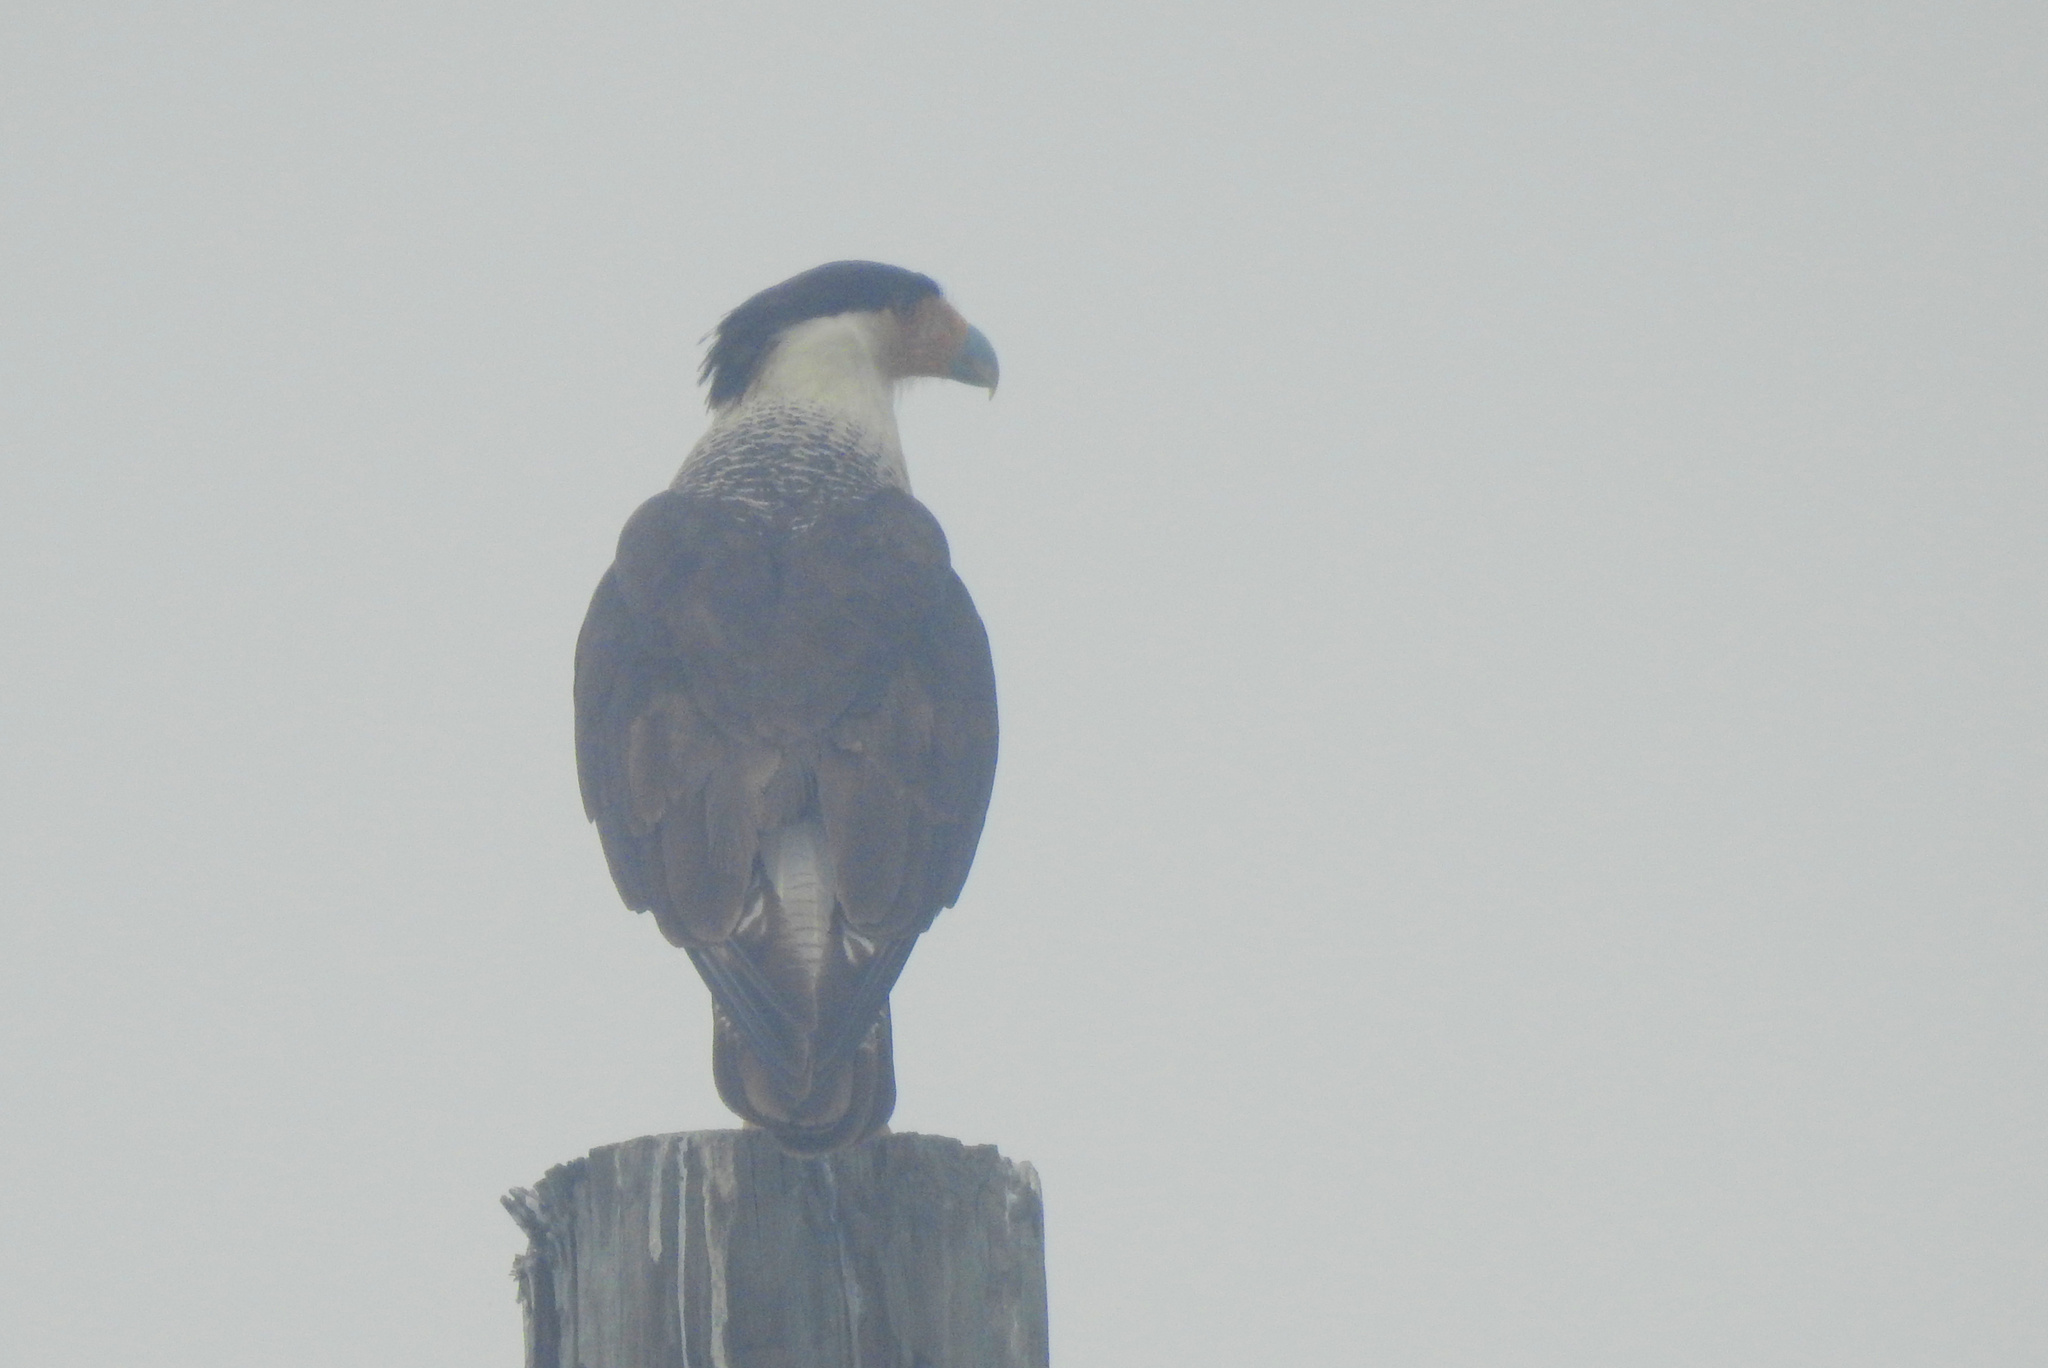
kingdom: Animalia
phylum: Chordata
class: Aves
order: Falconiformes
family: Falconidae
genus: Caracara
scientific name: Caracara plancus
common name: Southern caracara
